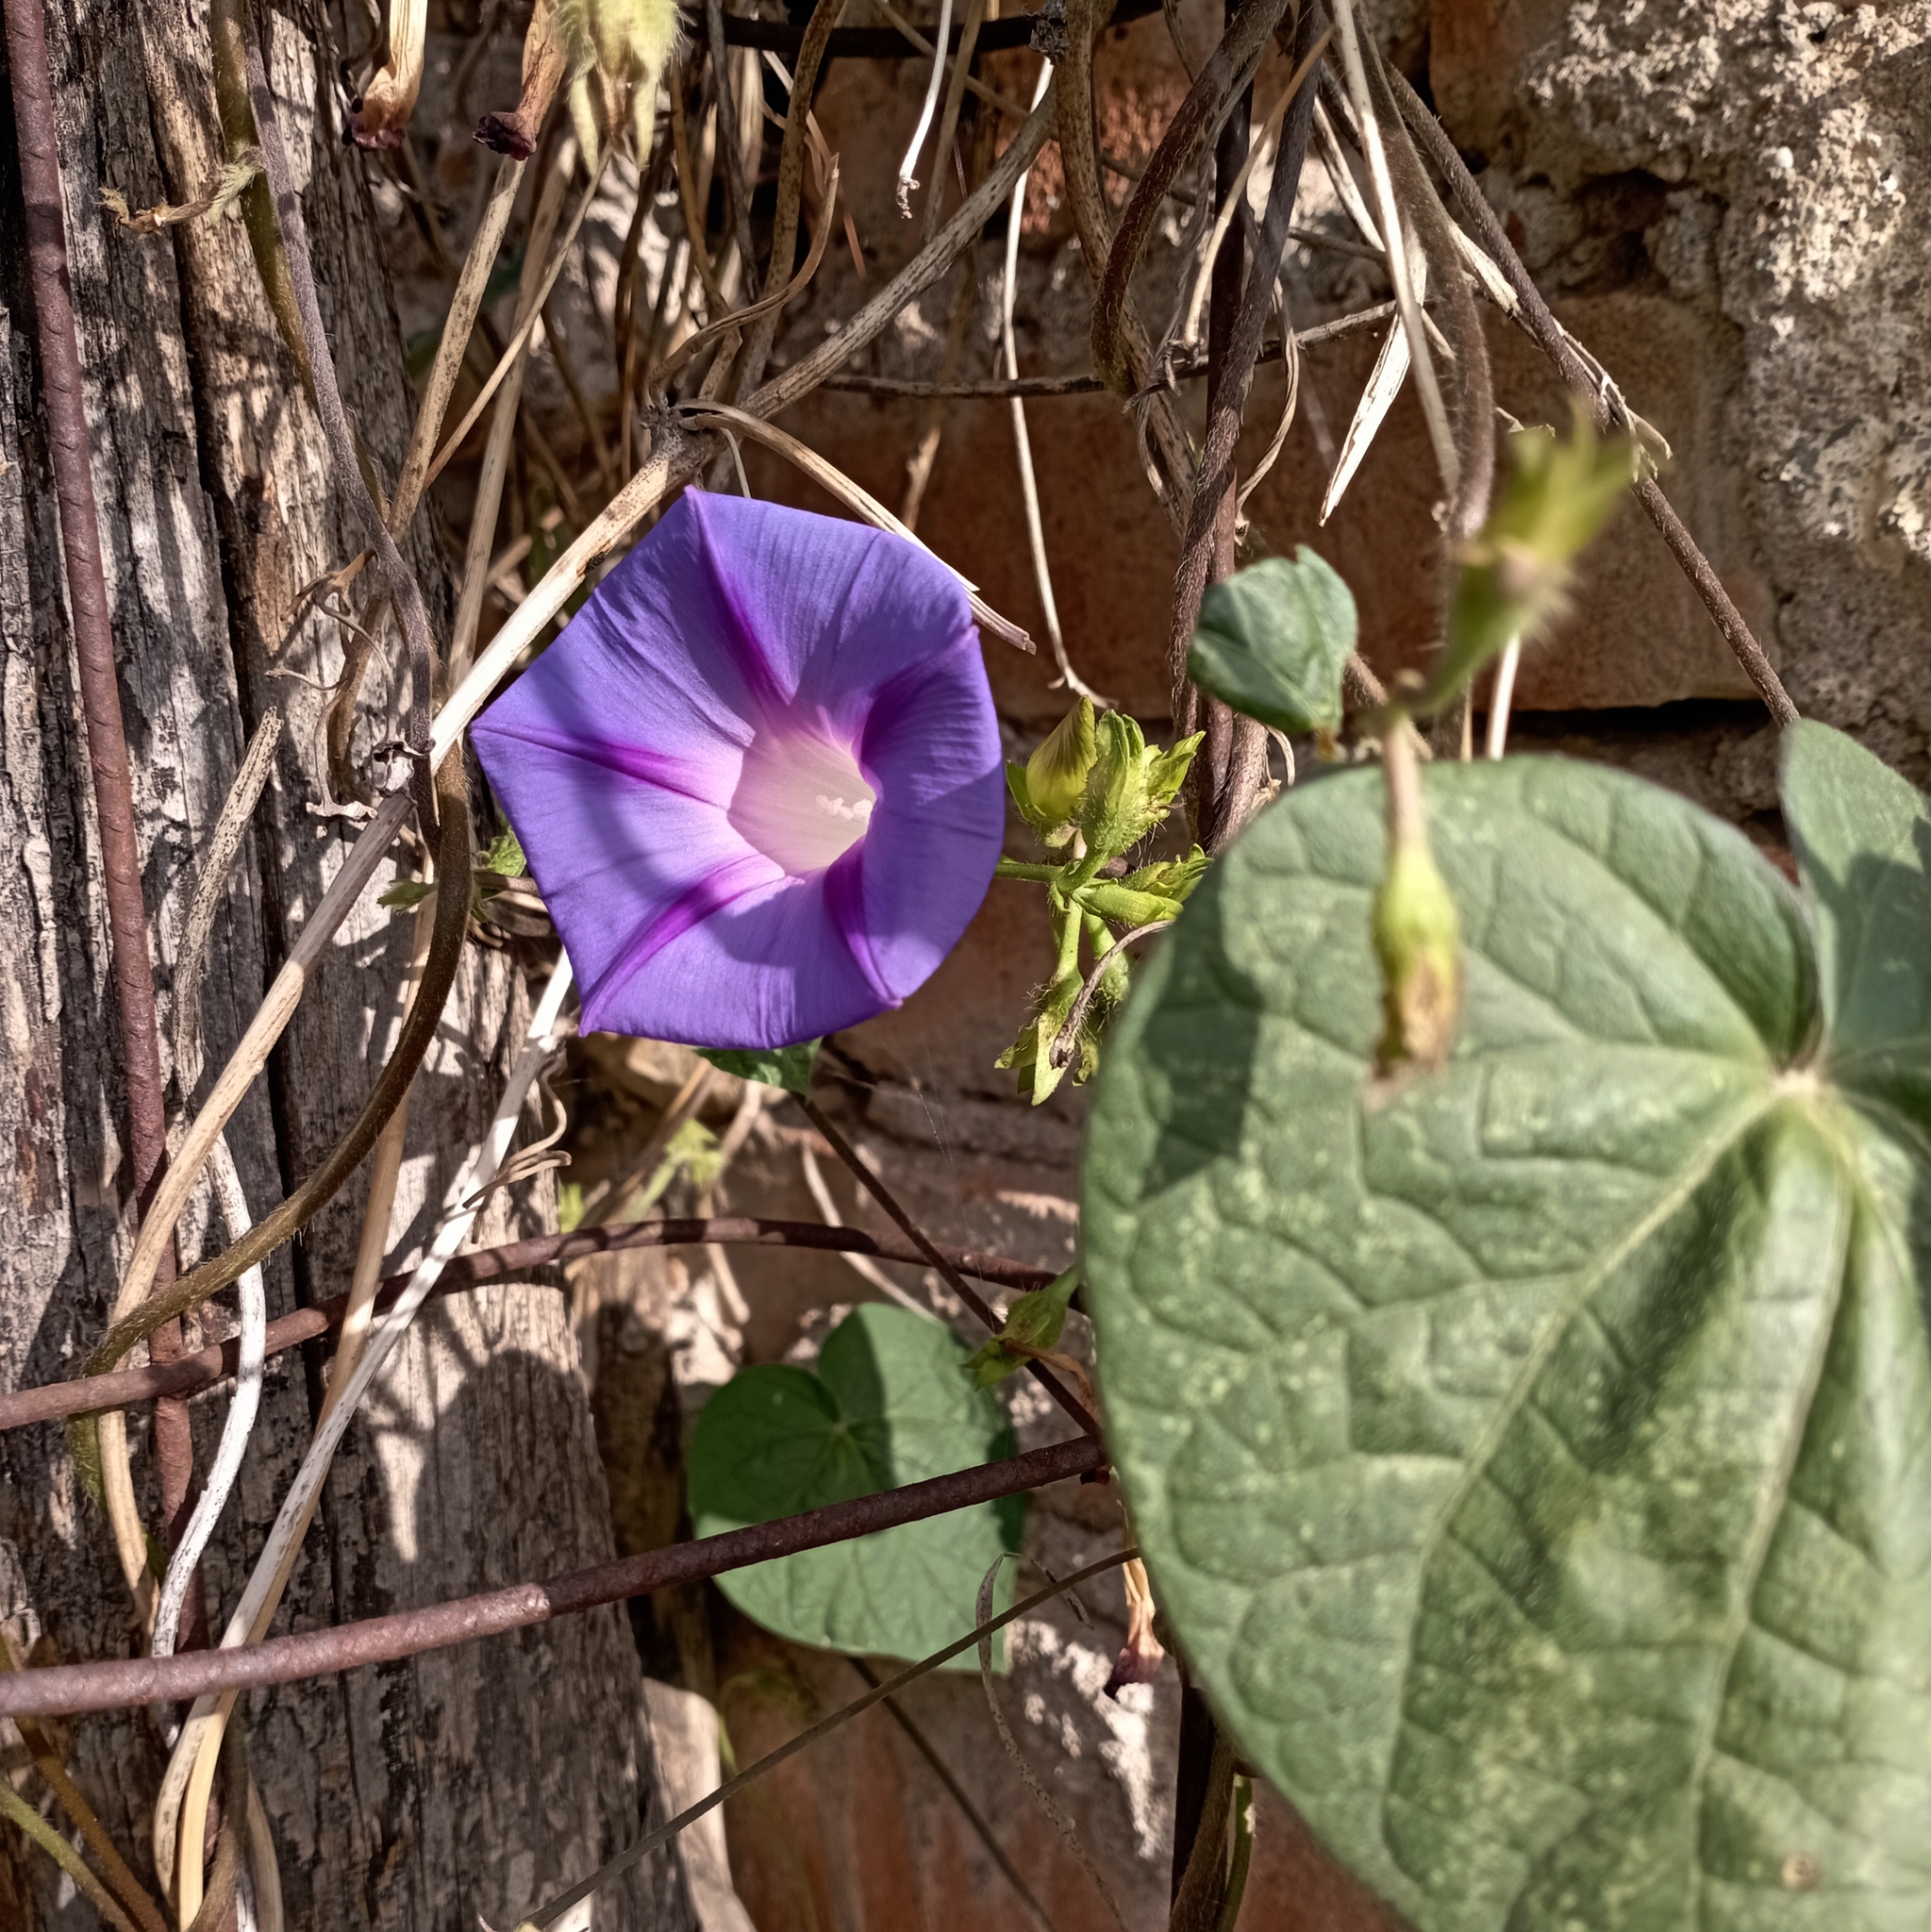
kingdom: Plantae
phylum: Tracheophyta
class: Magnoliopsida
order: Solanales
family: Convolvulaceae
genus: Ipomoea
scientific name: Ipomoea purpurea
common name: Common morning-glory
